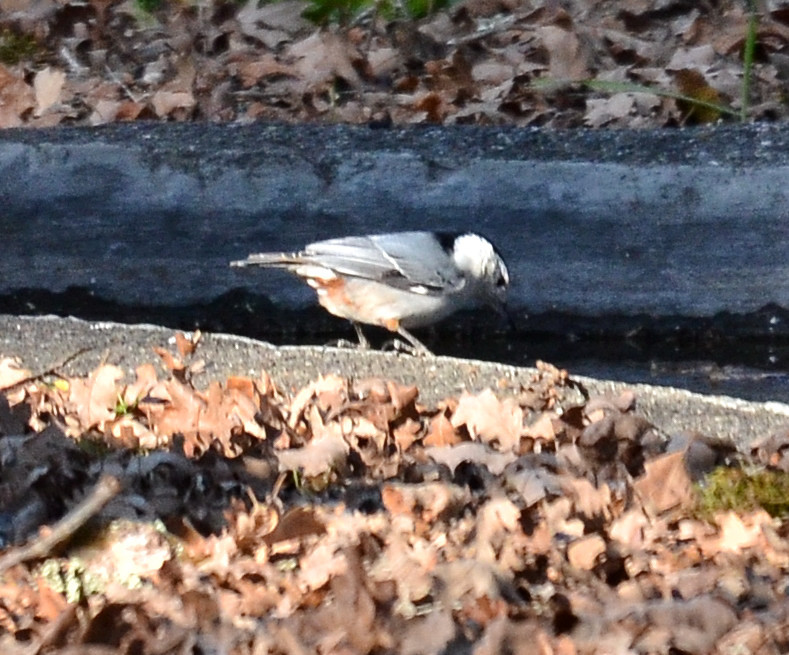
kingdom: Animalia
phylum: Chordata
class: Aves
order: Passeriformes
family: Sittidae
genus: Sitta
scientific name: Sitta carolinensis
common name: White-breasted nuthatch
